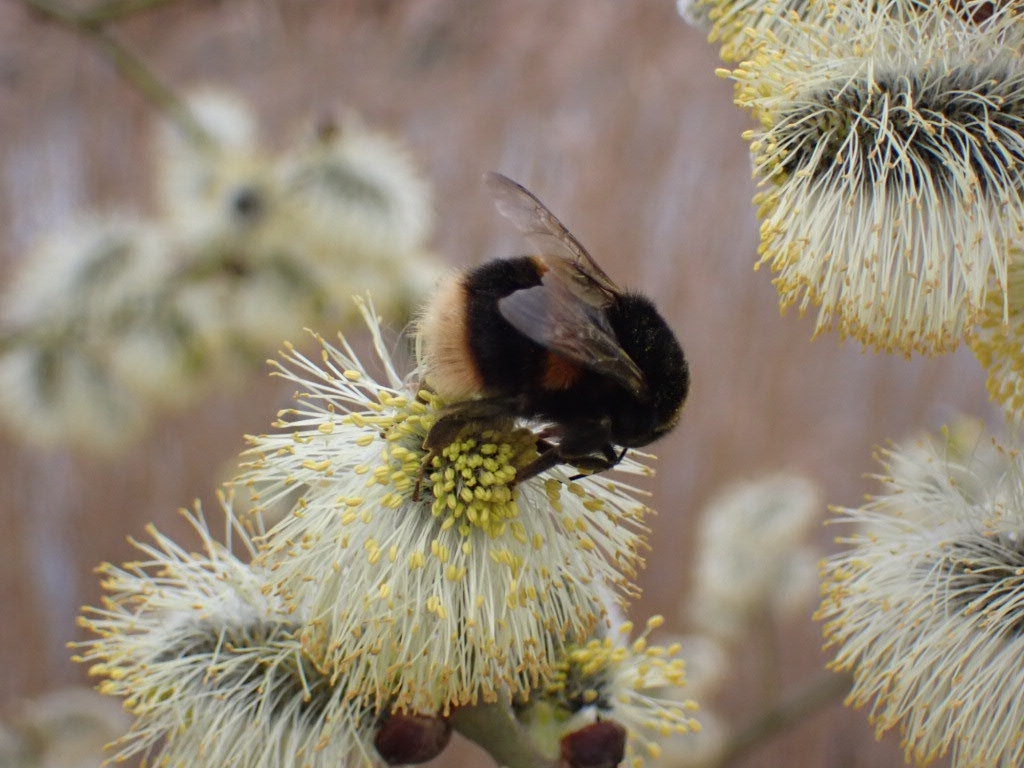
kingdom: Animalia
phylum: Arthropoda
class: Insecta
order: Hymenoptera
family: Apidae
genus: Bombus
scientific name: Bombus terrestris
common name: Buff-tailed bumblebee
